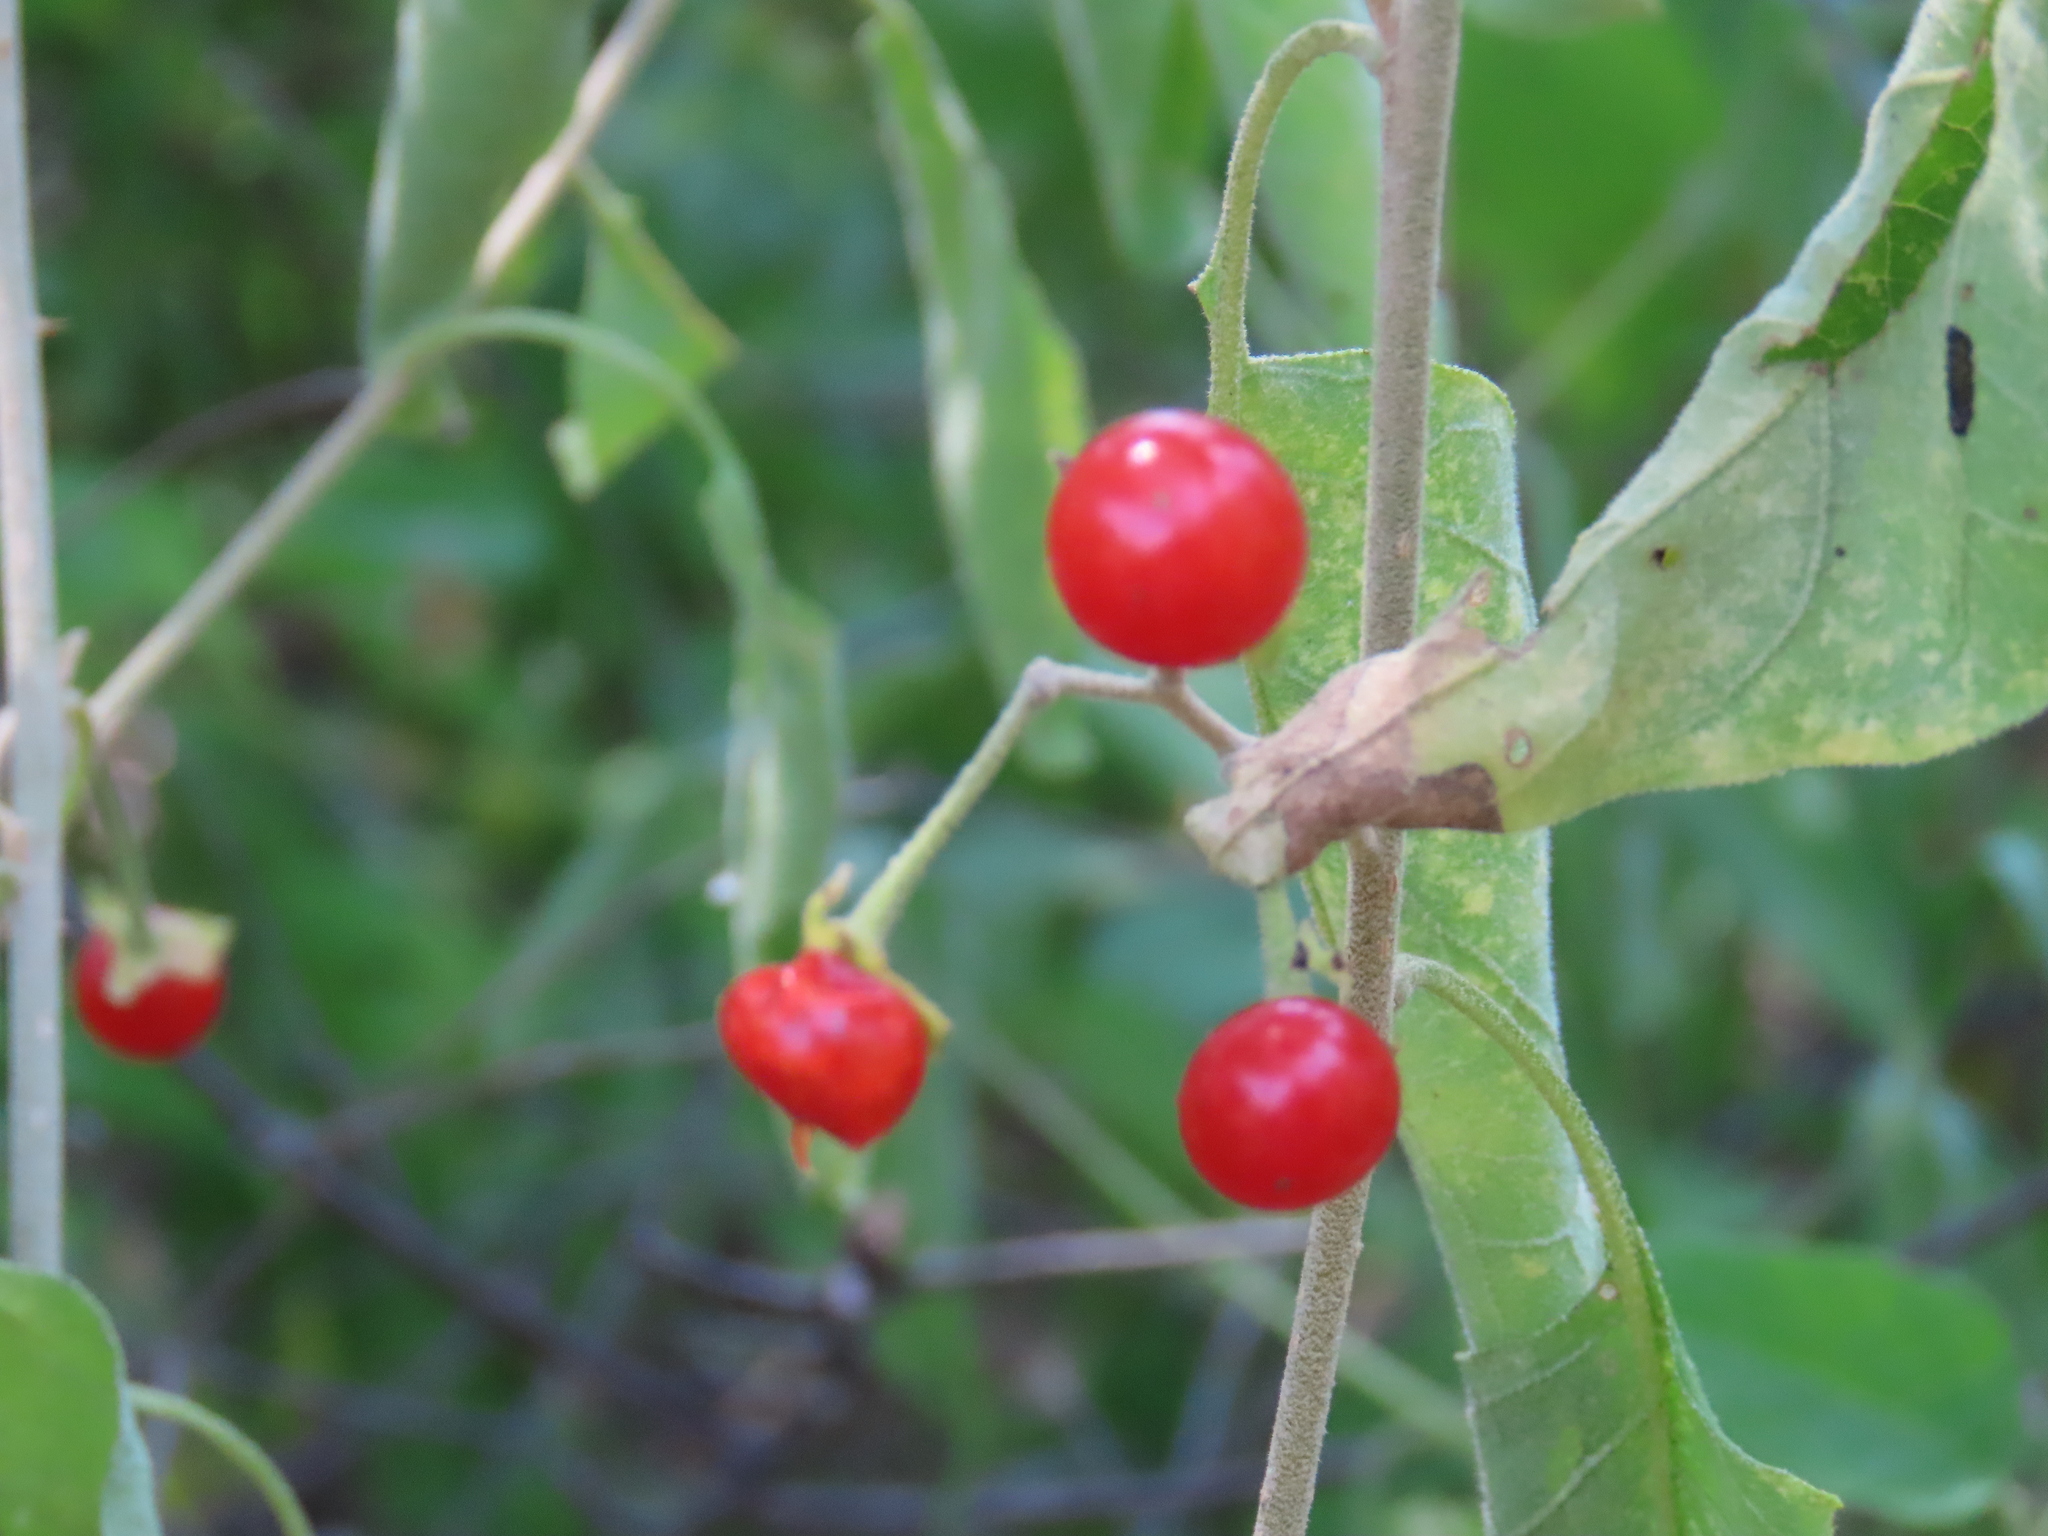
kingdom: Plantae
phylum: Tracheophyta
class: Magnoliopsida
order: Solanales
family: Solanaceae
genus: Solanum
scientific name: Solanum tettense
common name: Mozambique bitter apple
